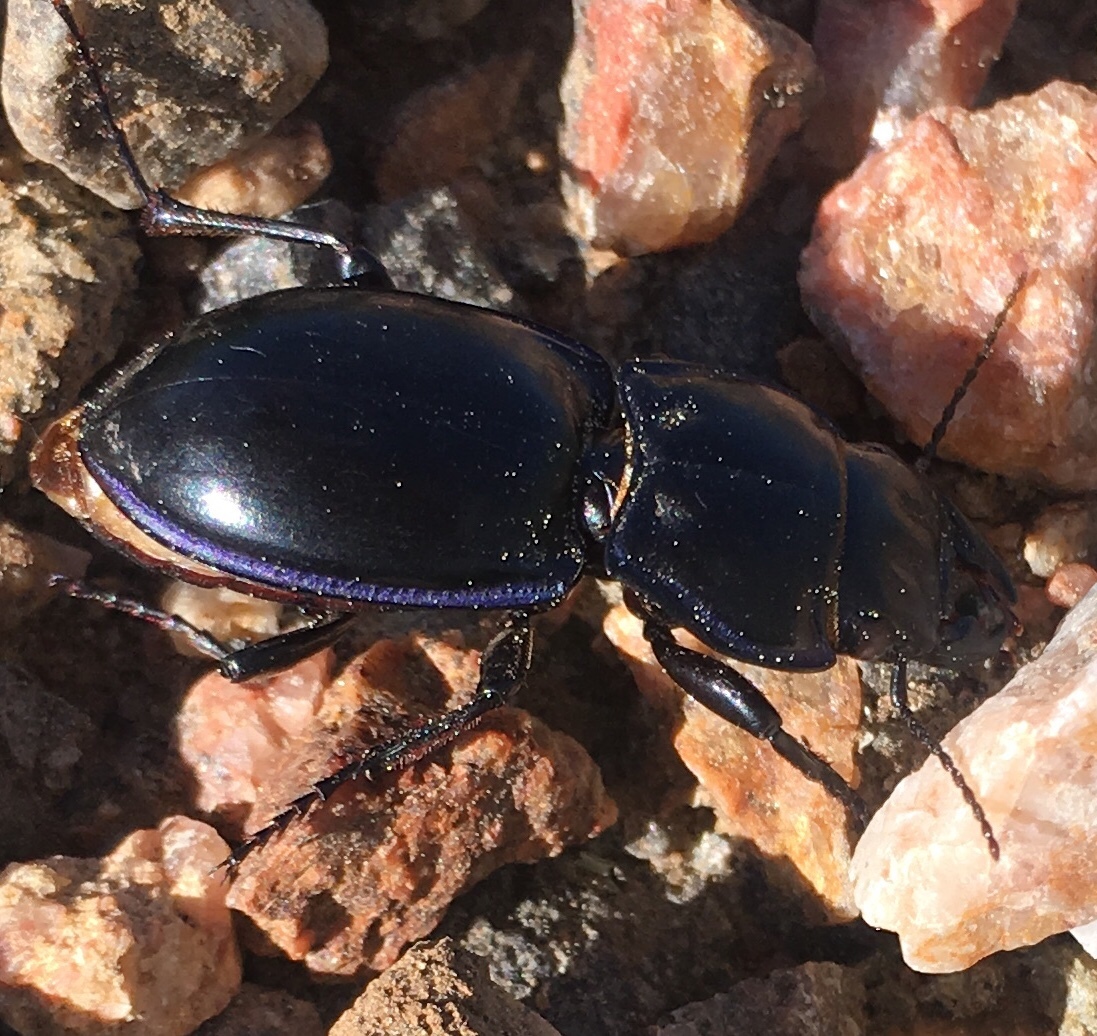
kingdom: Animalia
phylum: Arthropoda
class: Insecta
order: Coleoptera
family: Carabidae
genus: Pasimachus
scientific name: Pasimachus elongatus
